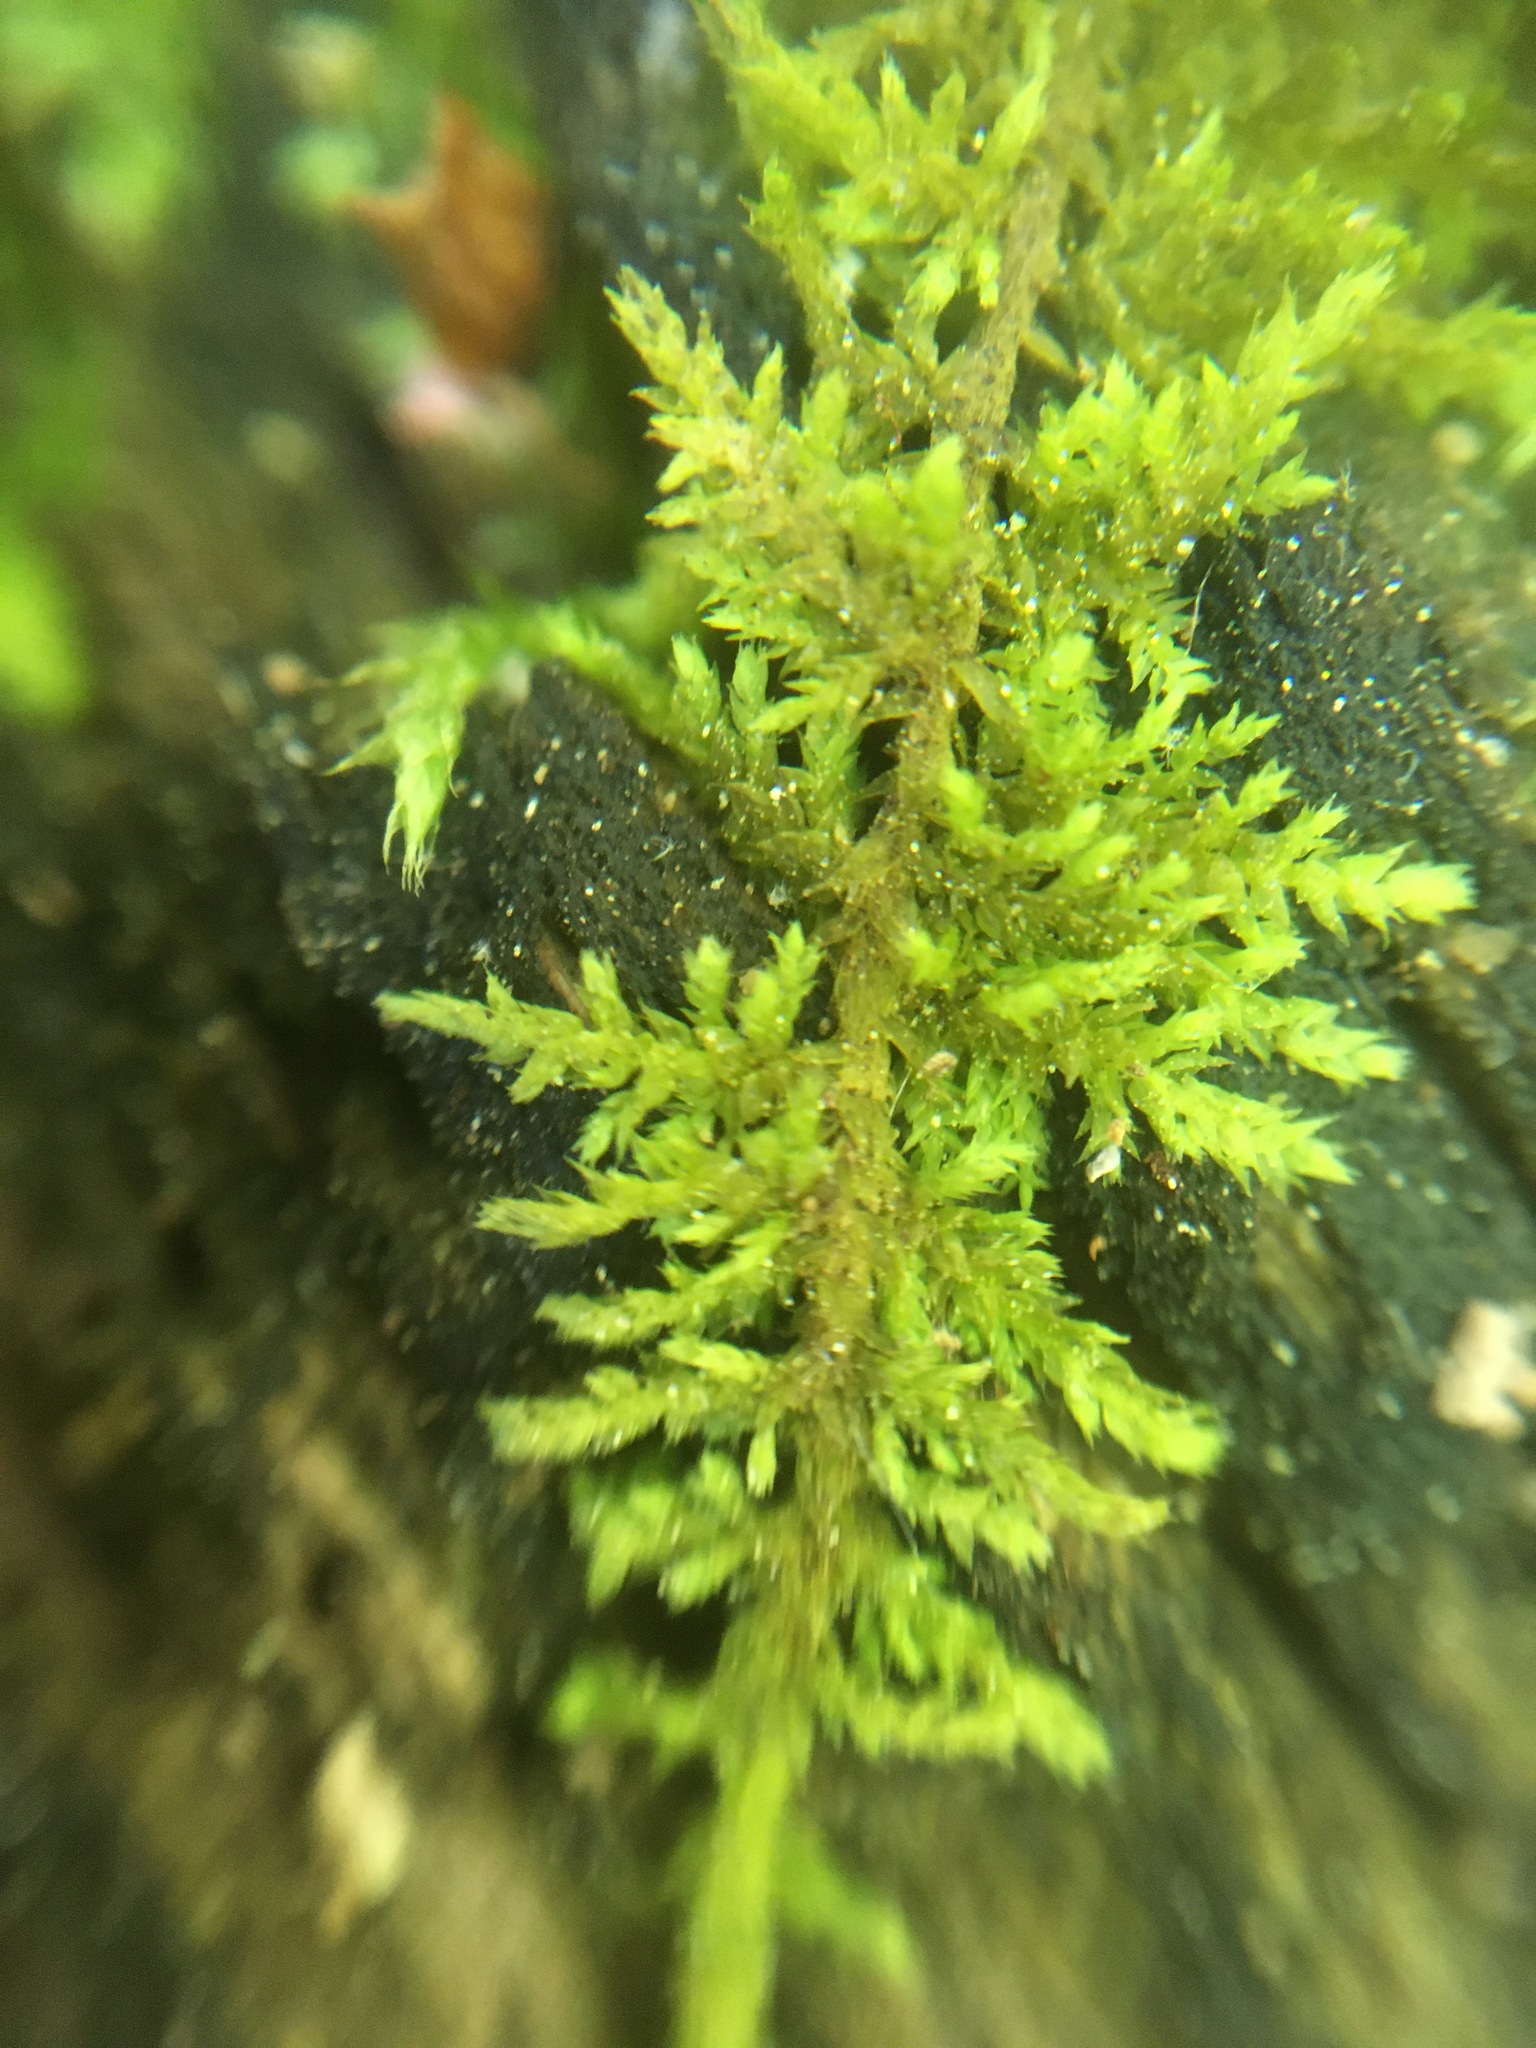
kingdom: Plantae
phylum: Bryophyta
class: Bryopsida
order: Hypnales
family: Thuidiaceae
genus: Thuidium
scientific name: Thuidium delicatulum
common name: Delicate fern moss
